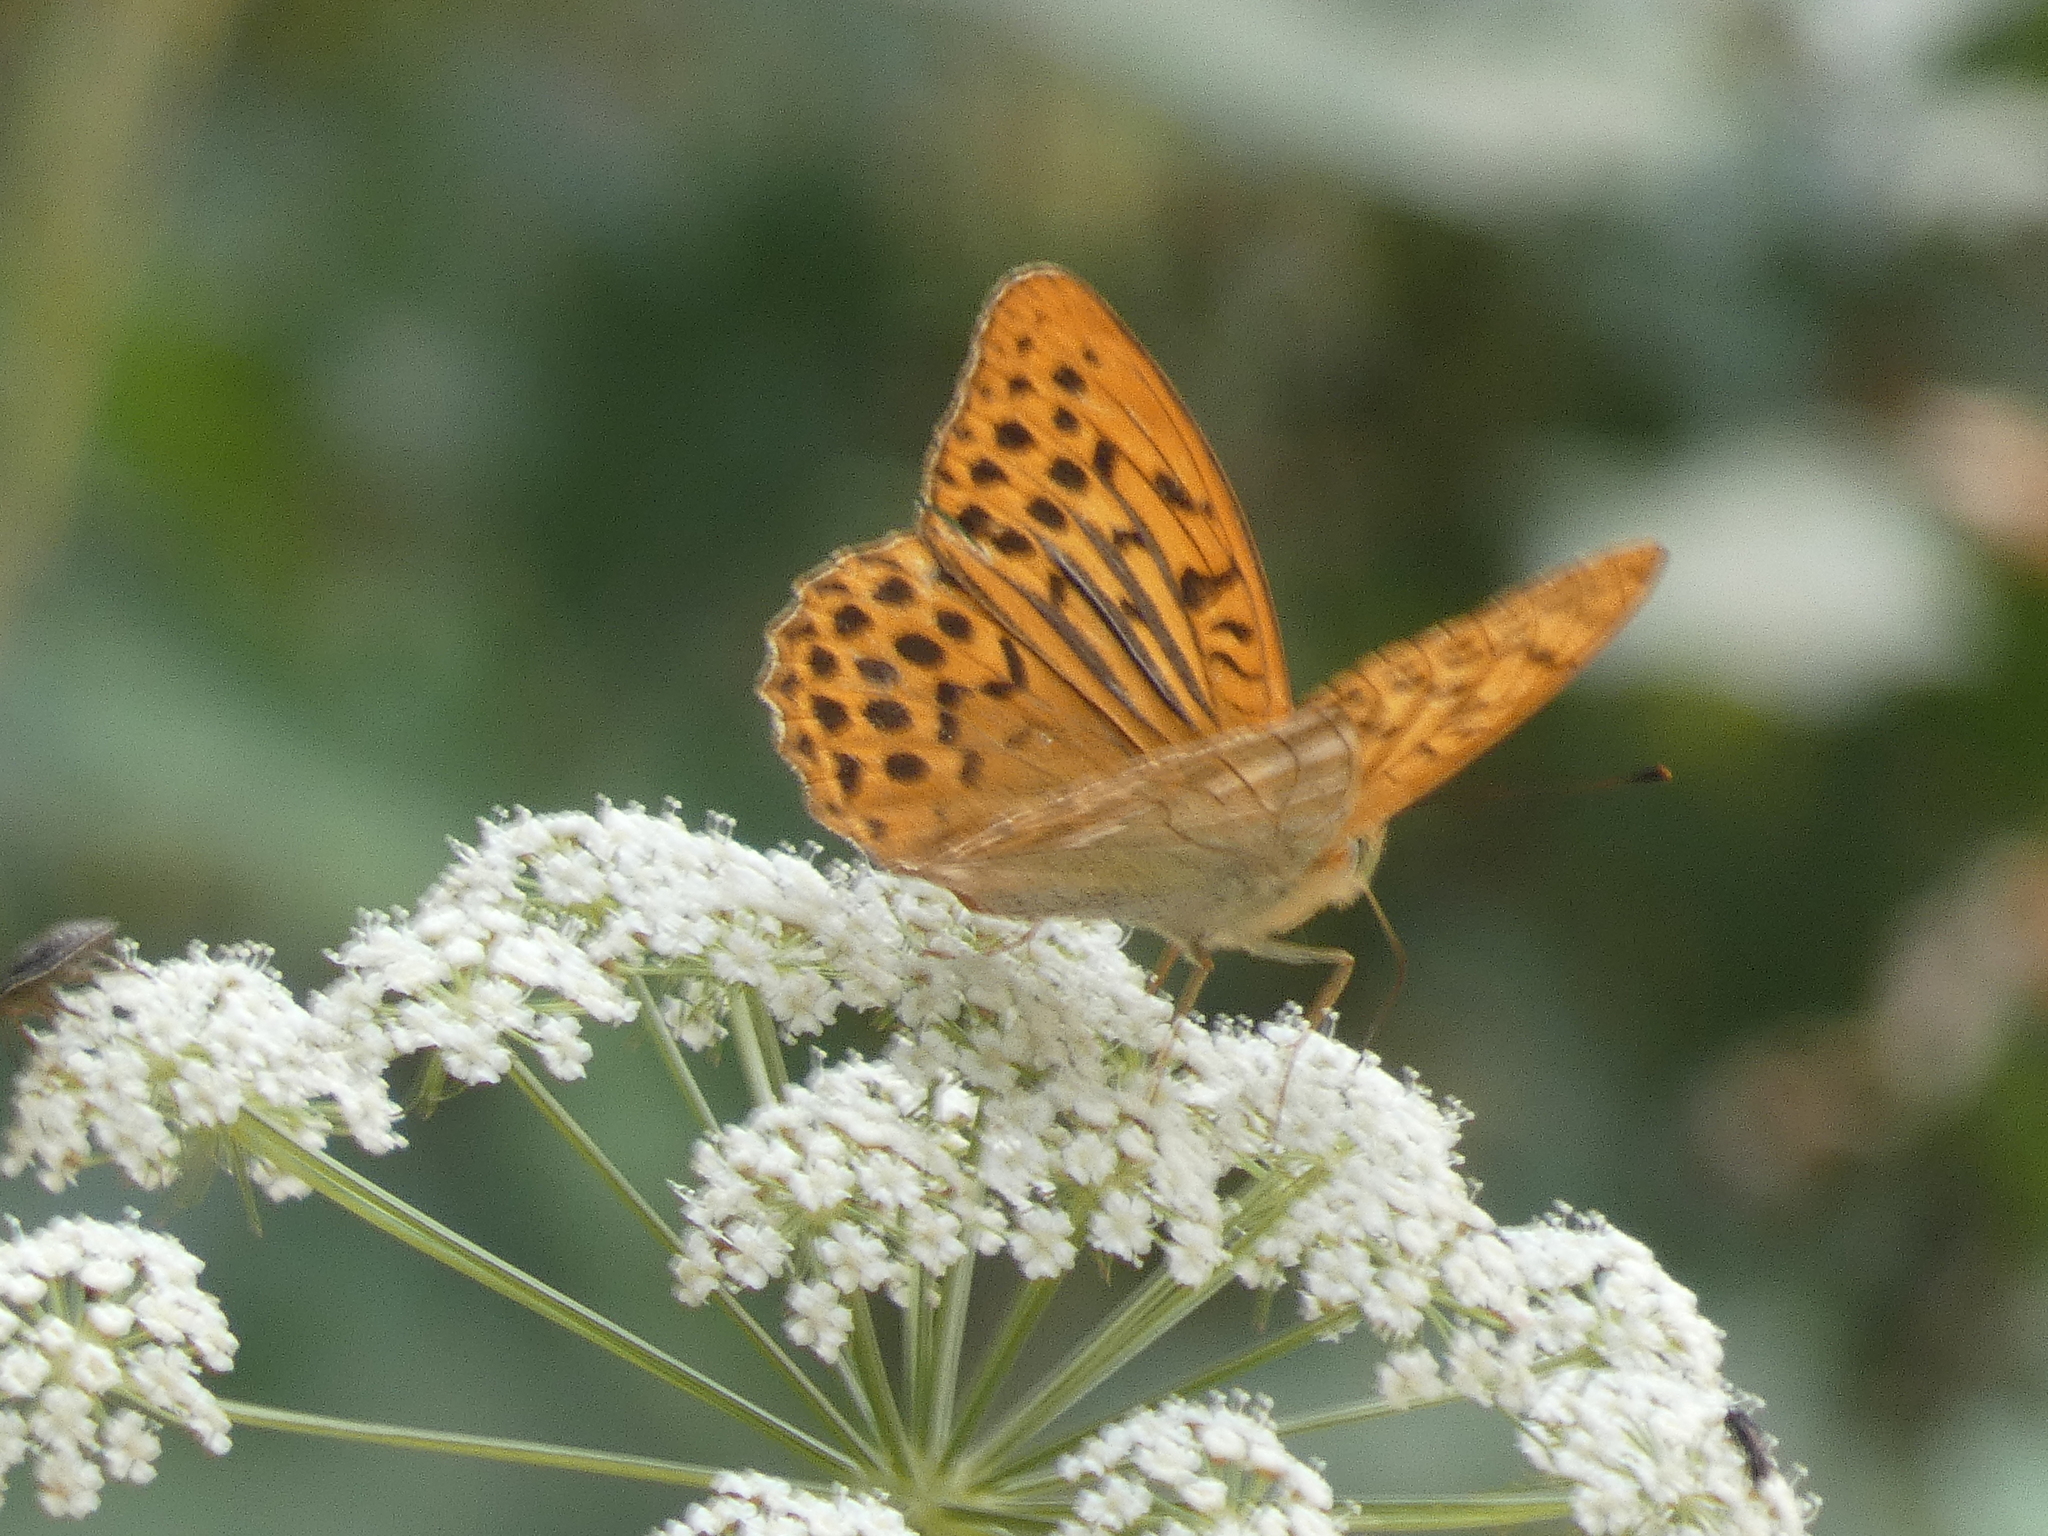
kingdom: Animalia
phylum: Arthropoda
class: Insecta
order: Lepidoptera
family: Nymphalidae
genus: Argynnis
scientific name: Argynnis paphia
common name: Silver-washed fritillary
